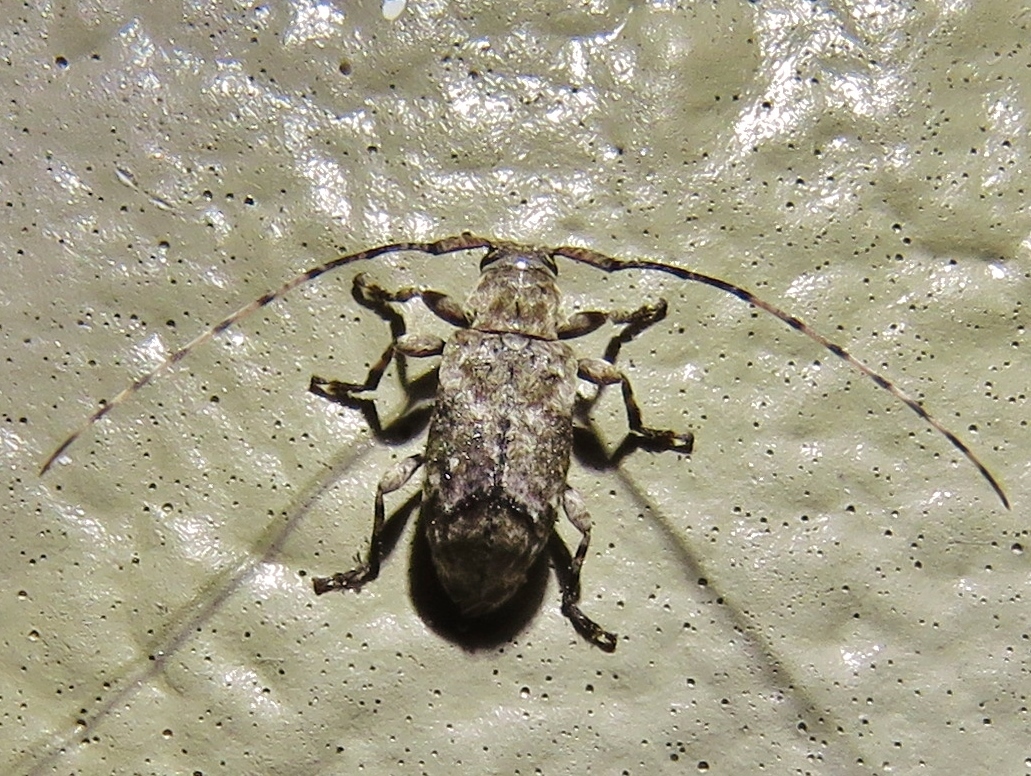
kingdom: Animalia
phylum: Arthropoda
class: Insecta
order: Coleoptera
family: Cerambycidae
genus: Sternidius
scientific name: Sternidius mimeticus
